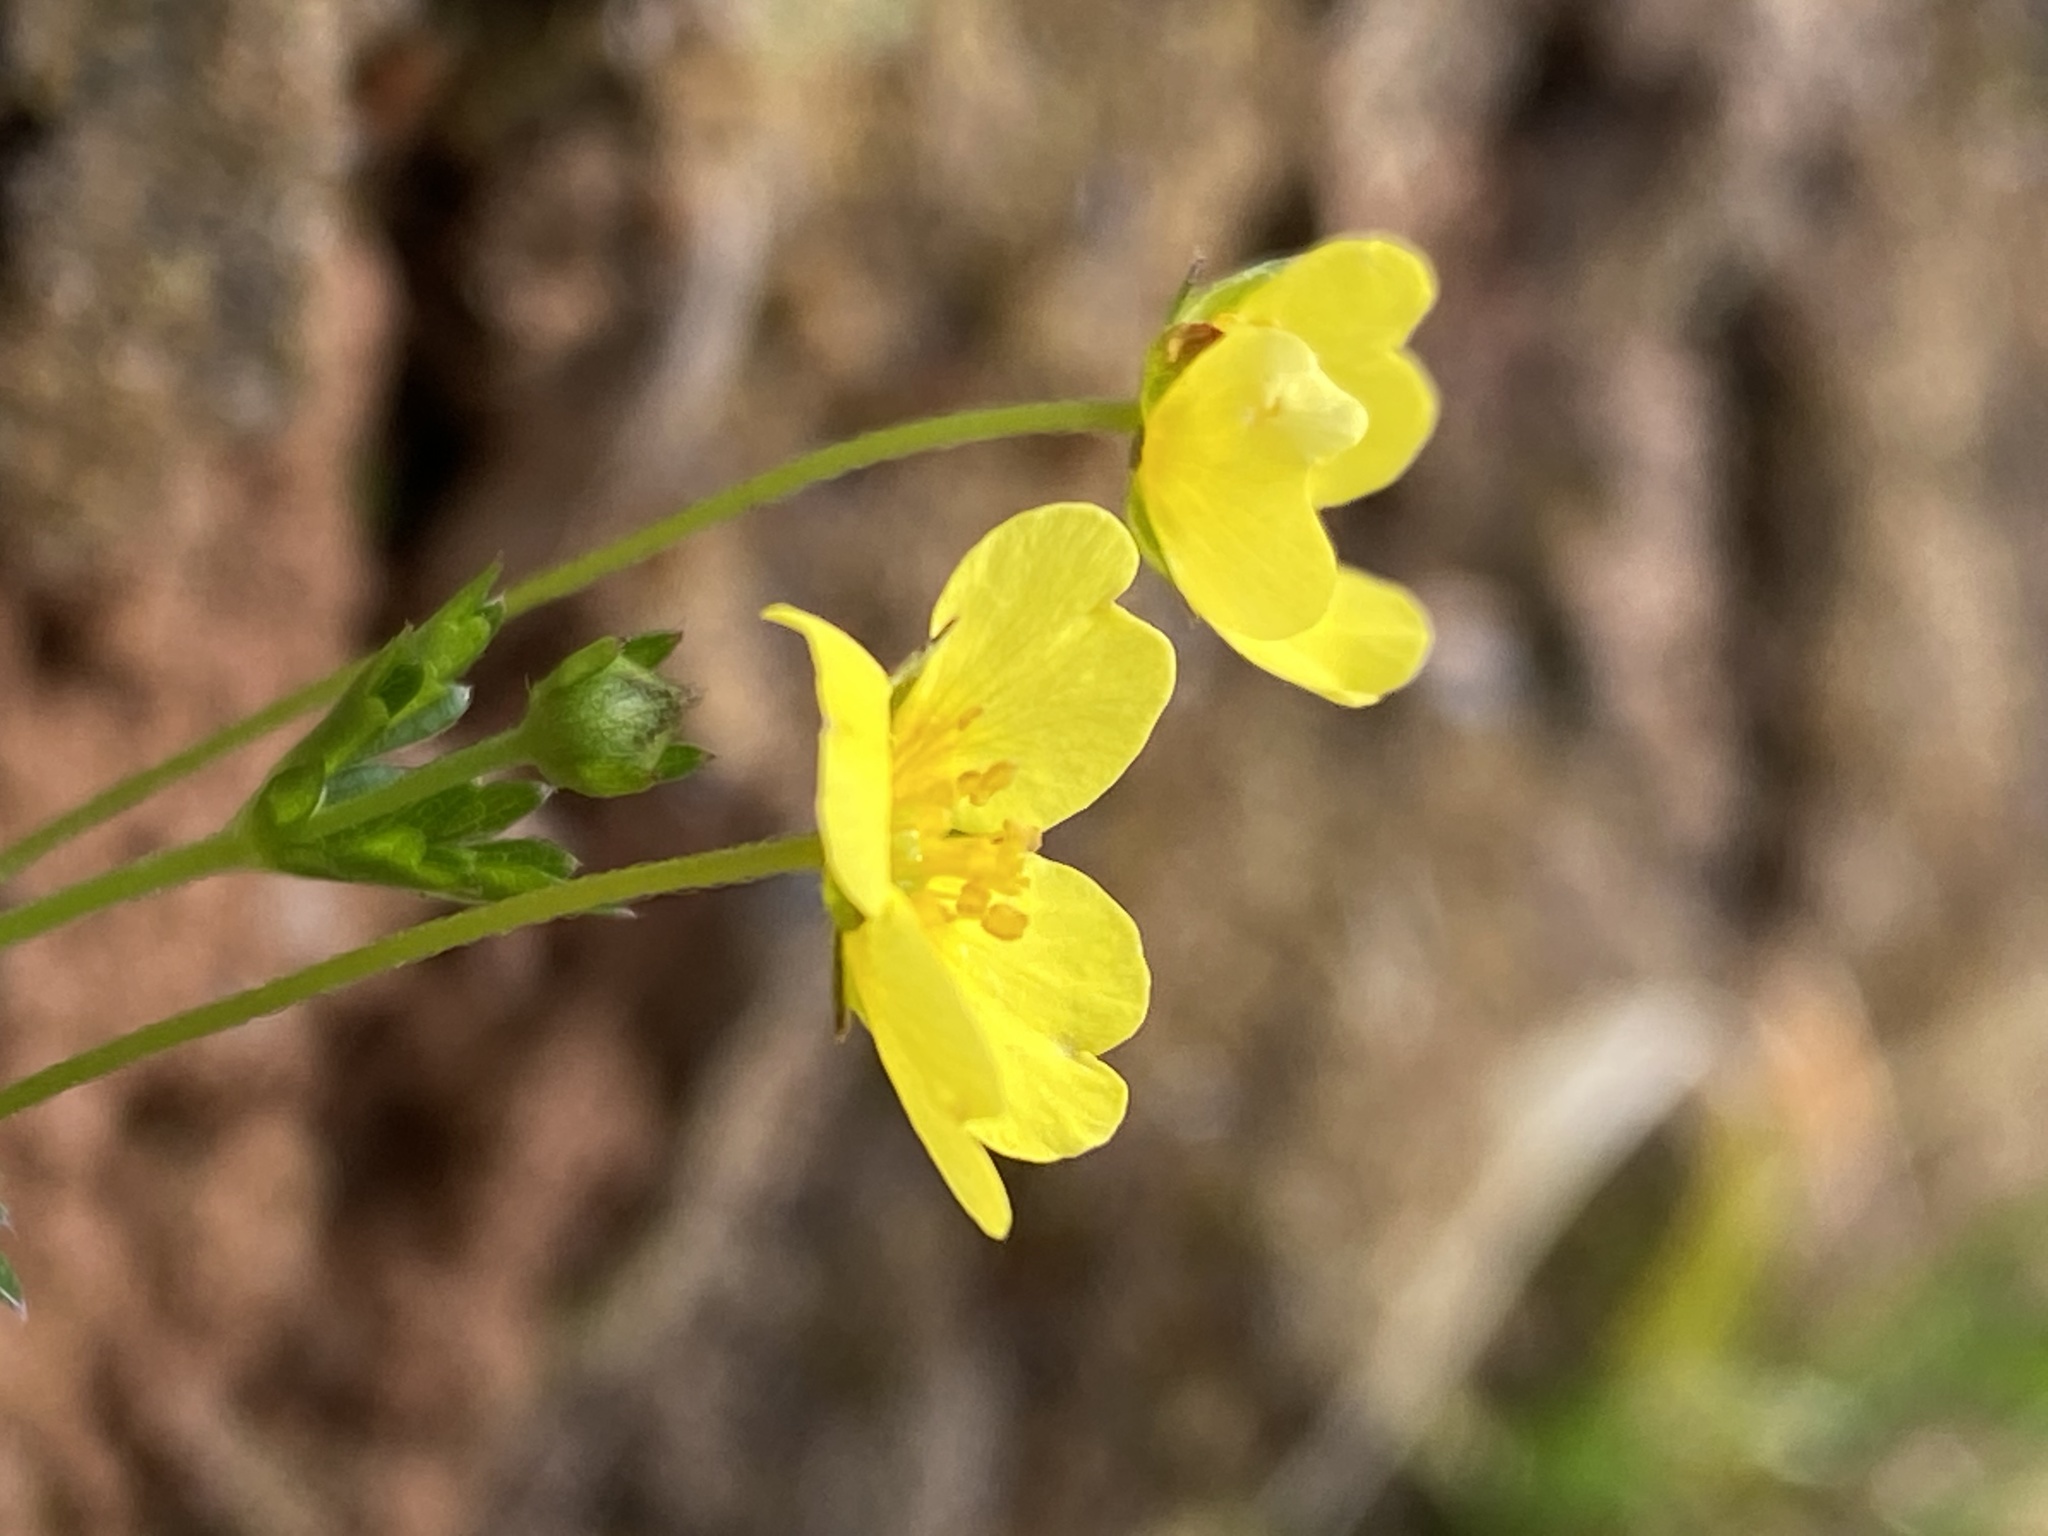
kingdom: Plantae
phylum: Tracheophyta
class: Magnoliopsida
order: Rosales
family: Rosaceae
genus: Potentilla
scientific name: Potentilla erecta
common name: Tormentil
